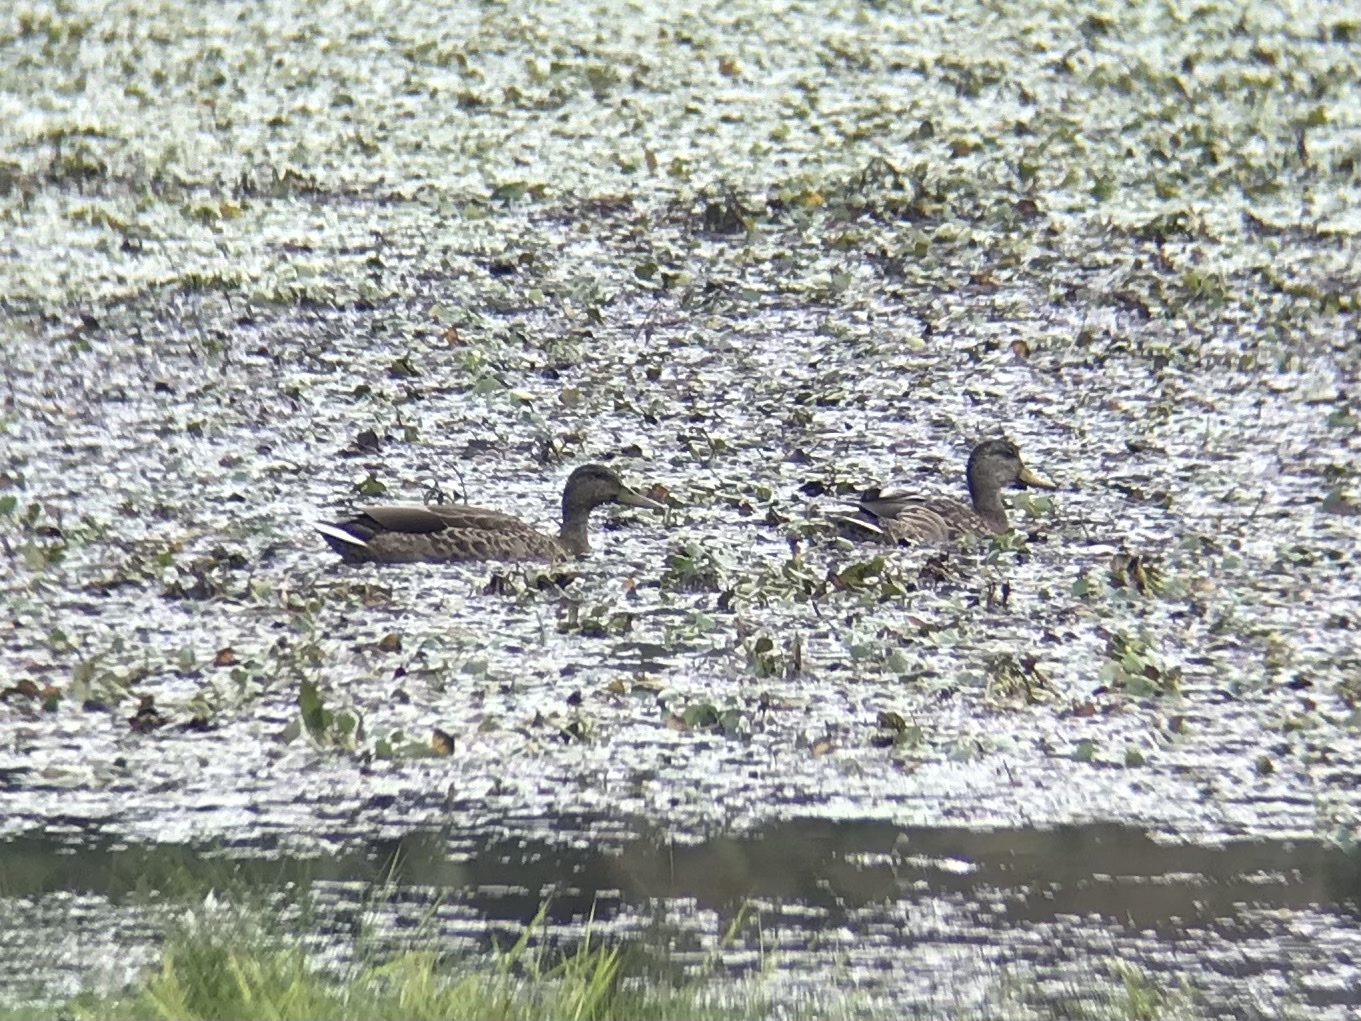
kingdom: Animalia
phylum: Chordata
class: Aves
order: Anseriformes
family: Anatidae
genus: Anas
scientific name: Anas platyrhynchos
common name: Mallard
